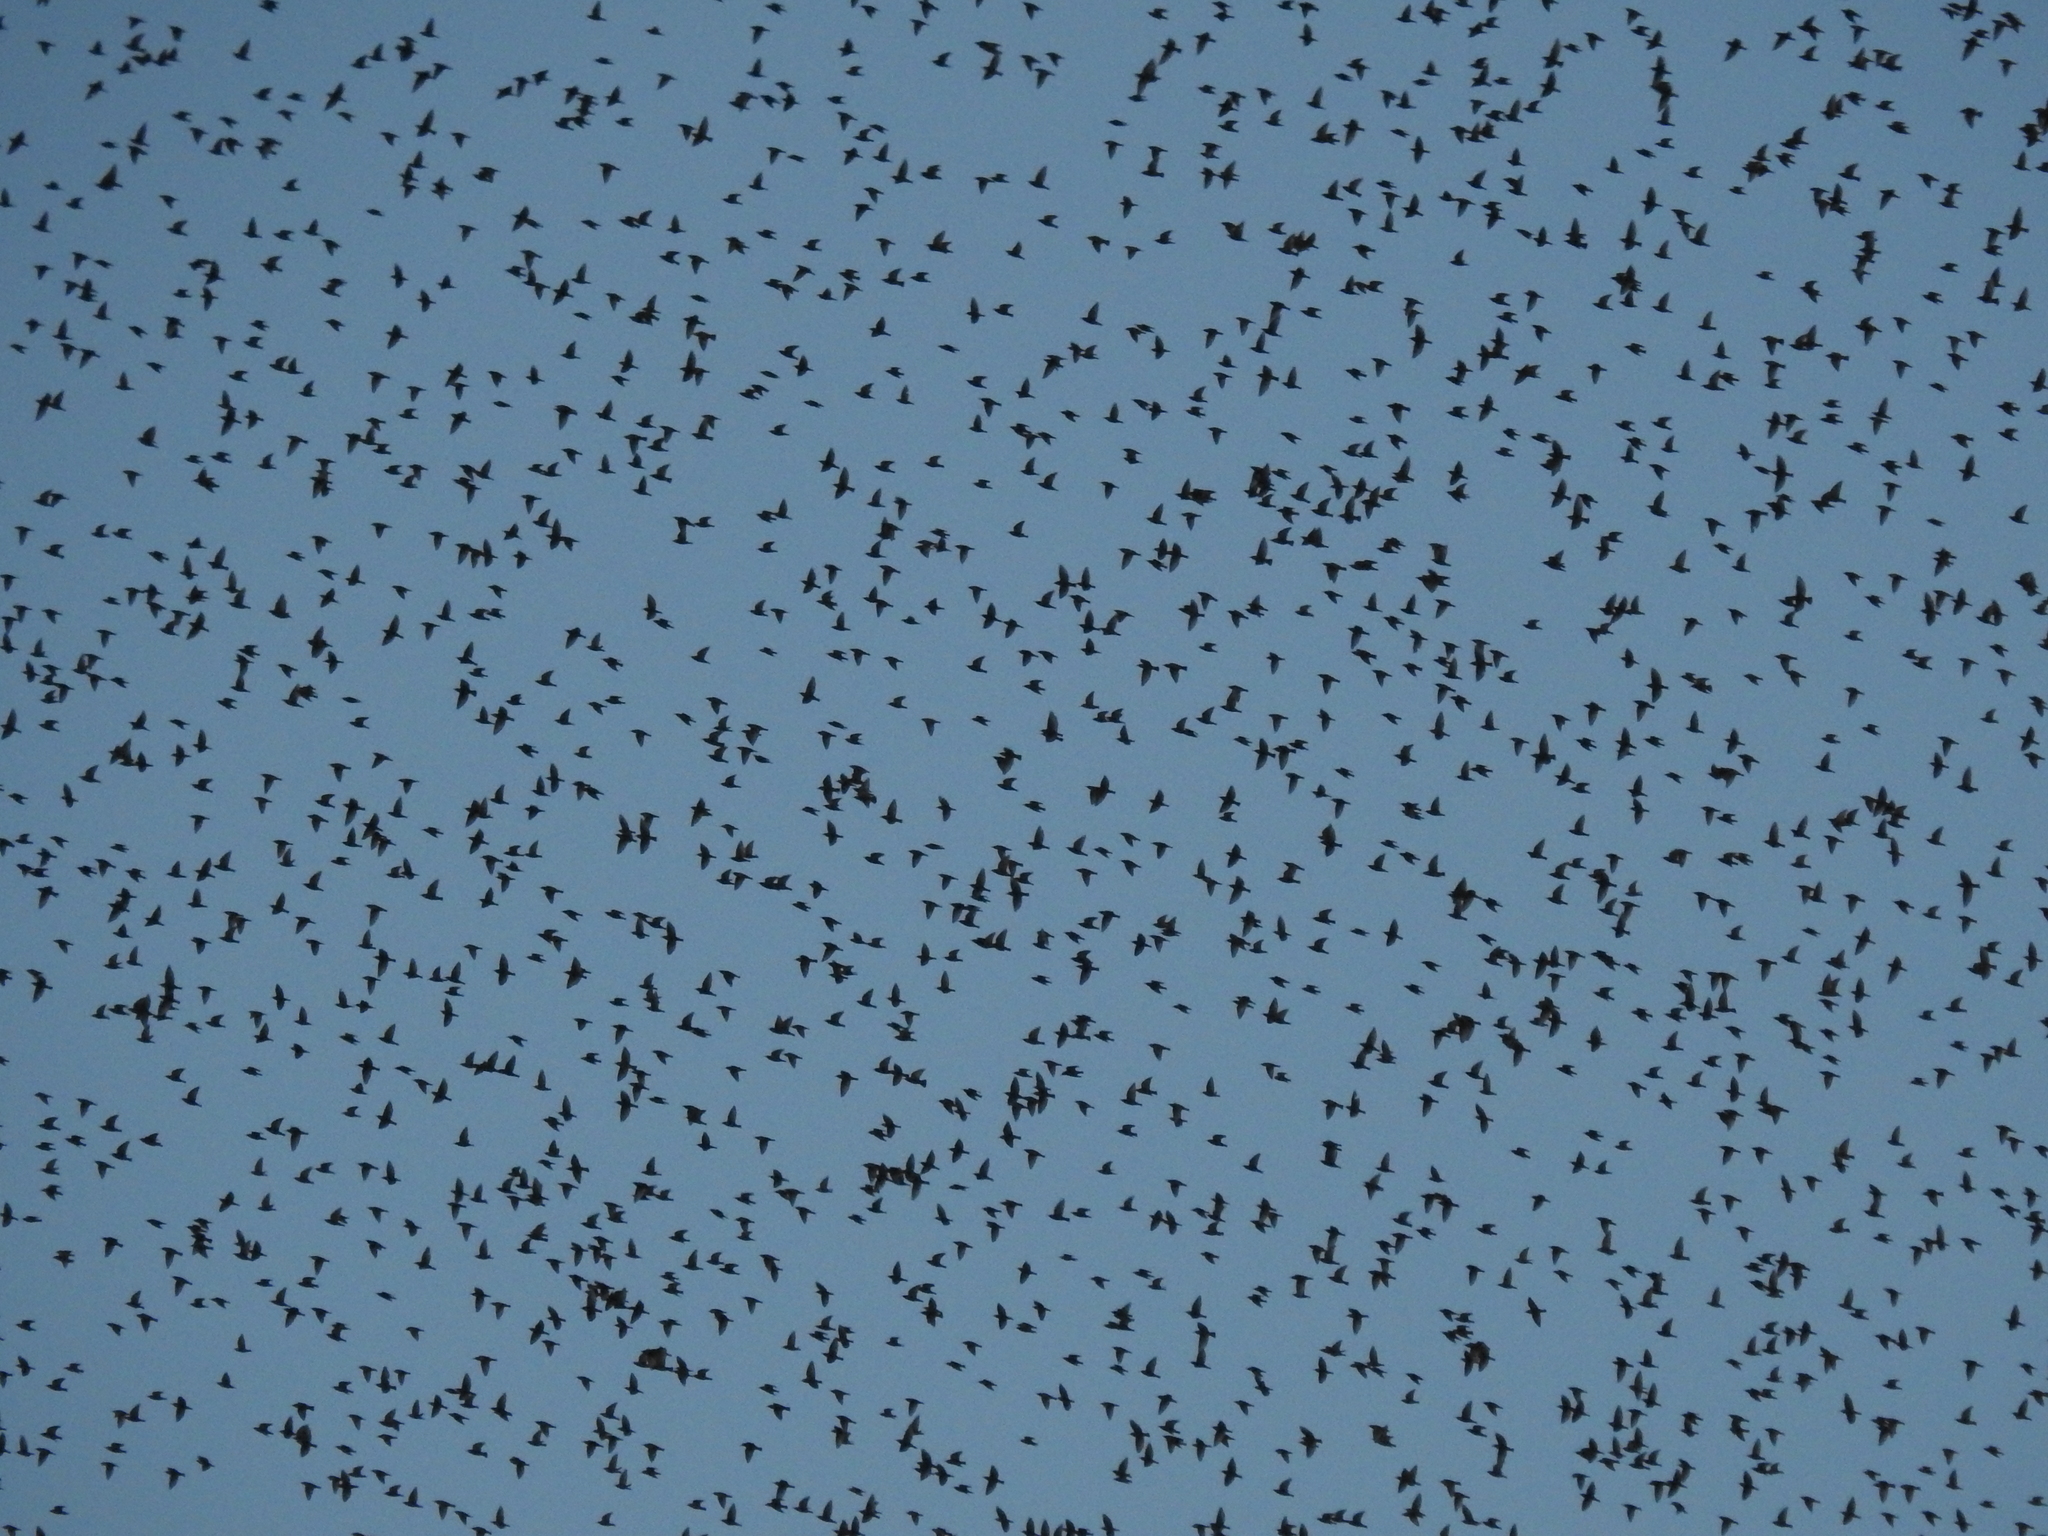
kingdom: Animalia
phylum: Chordata
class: Aves
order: Passeriformes
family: Sturnidae
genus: Sturnus
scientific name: Sturnus vulgaris
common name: Common starling
